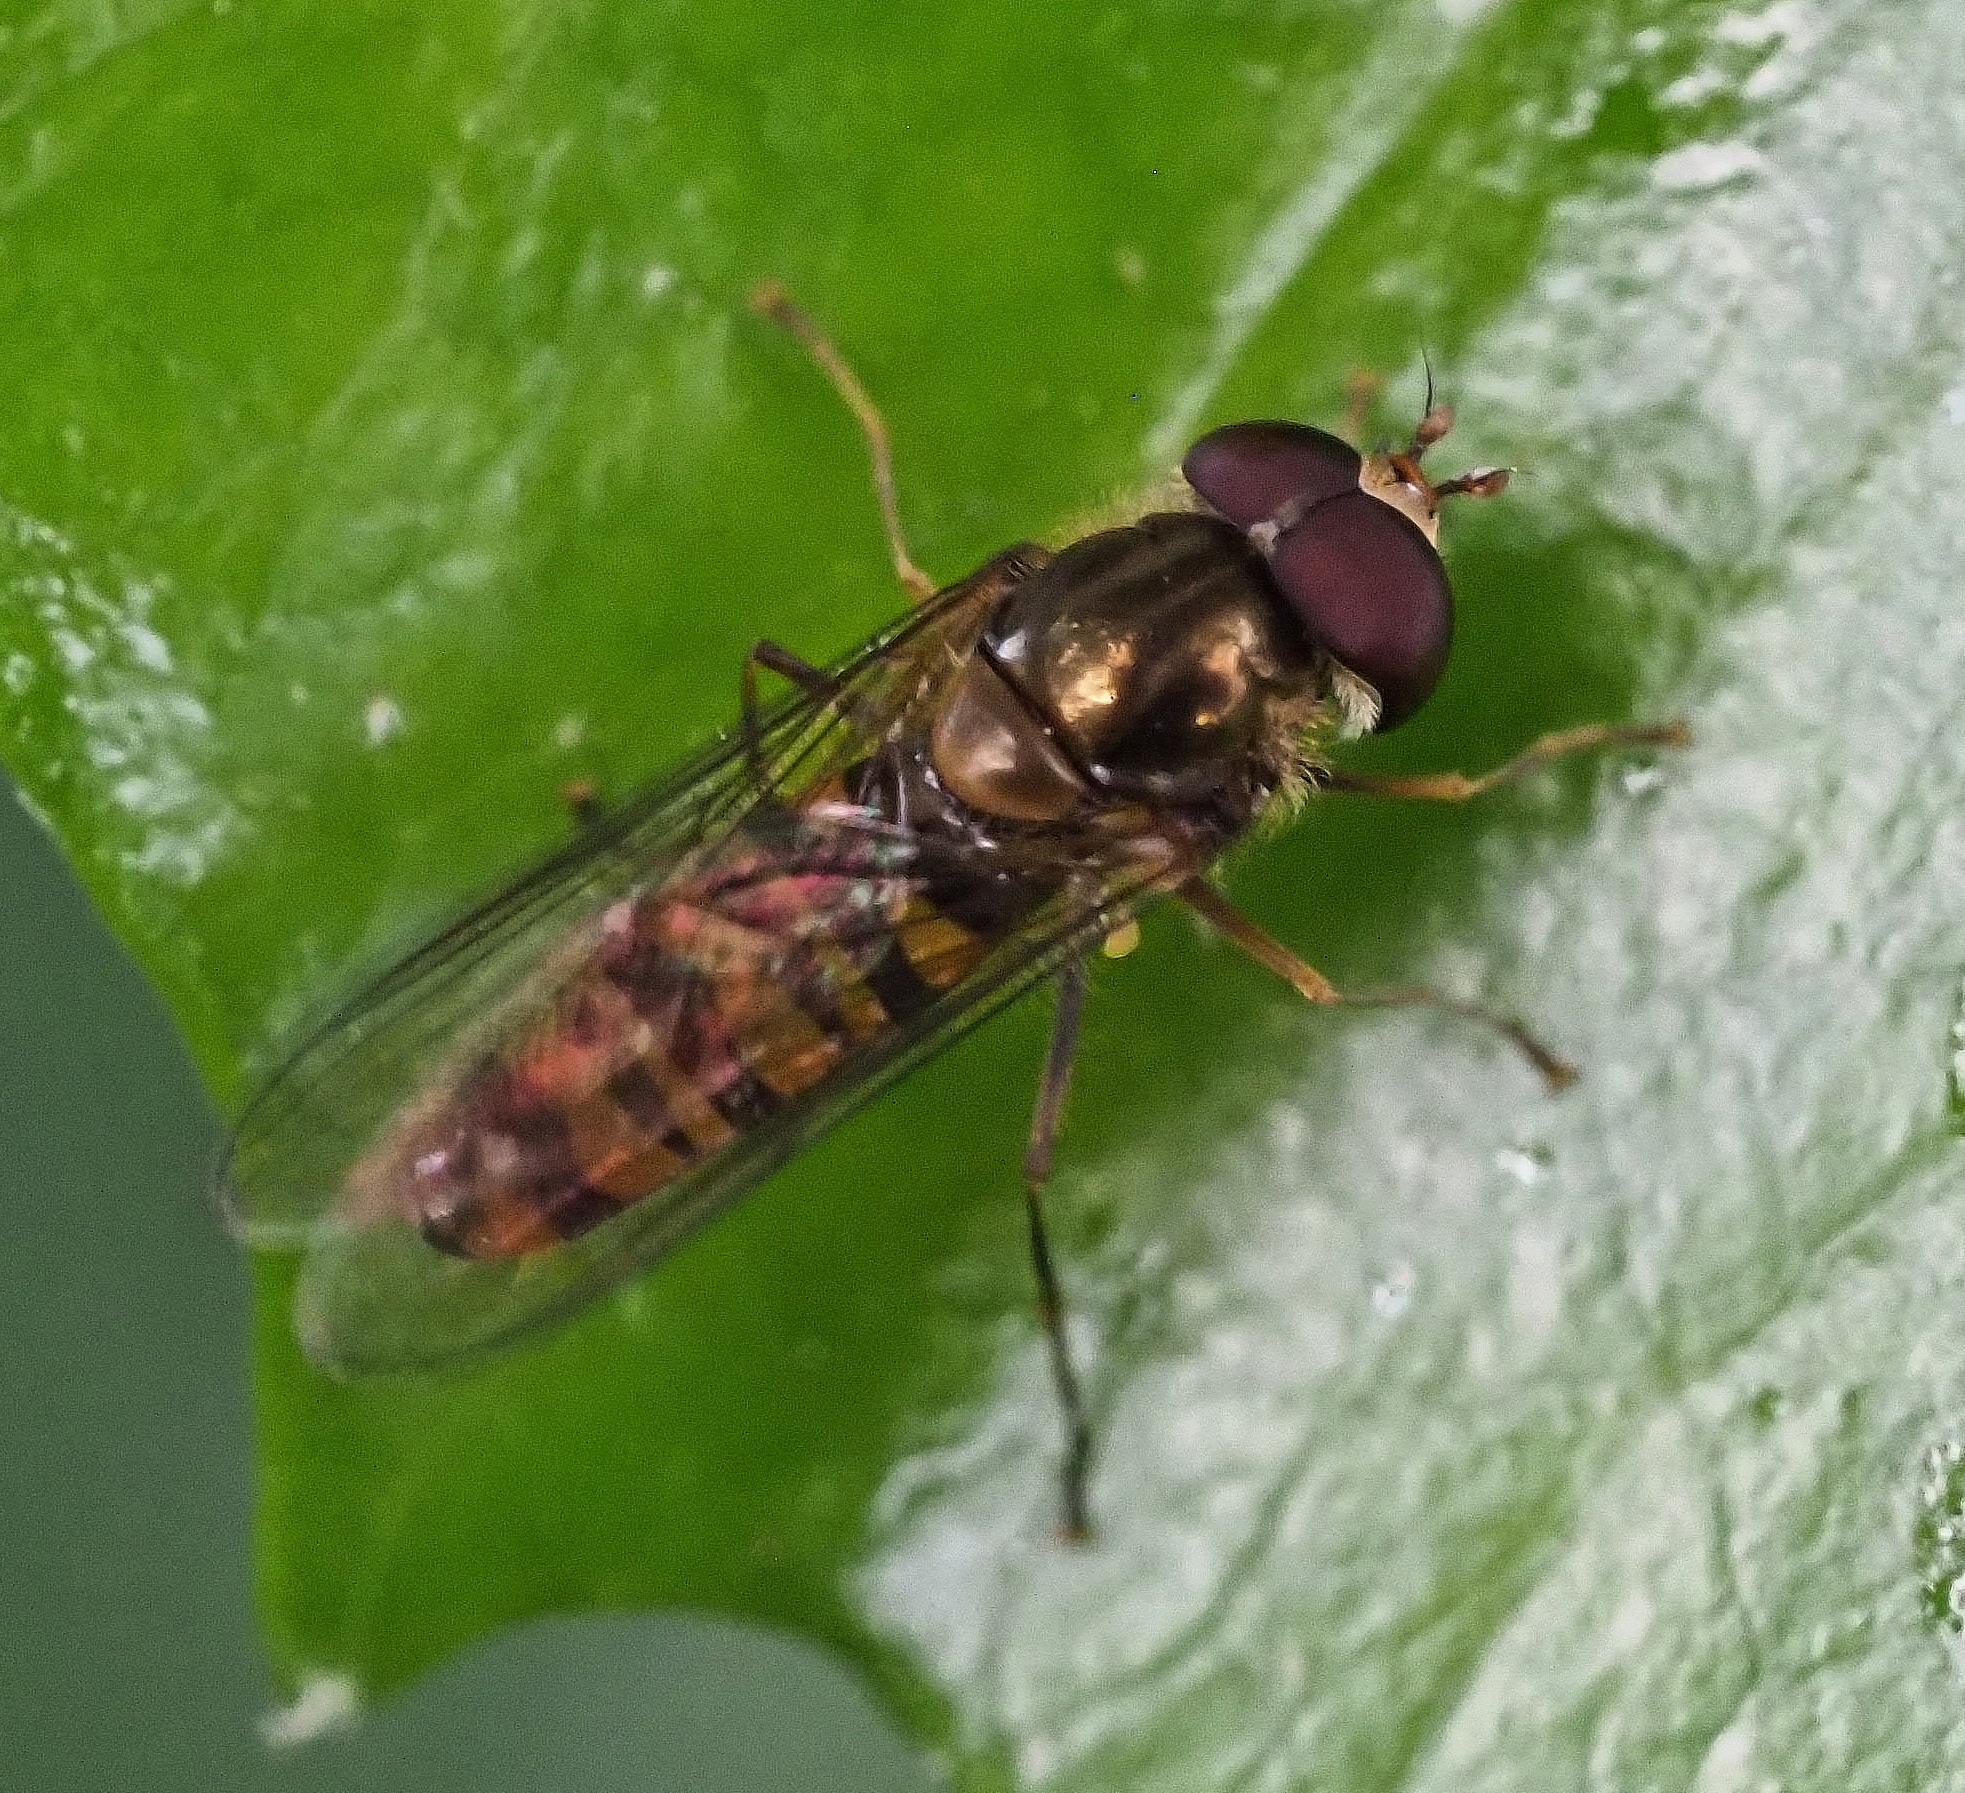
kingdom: Animalia
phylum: Arthropoda
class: Insecta
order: Diptera
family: Syrphidae
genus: Episyrphus
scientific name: Episyrphus balteatus
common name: Marmalade hoverfly
